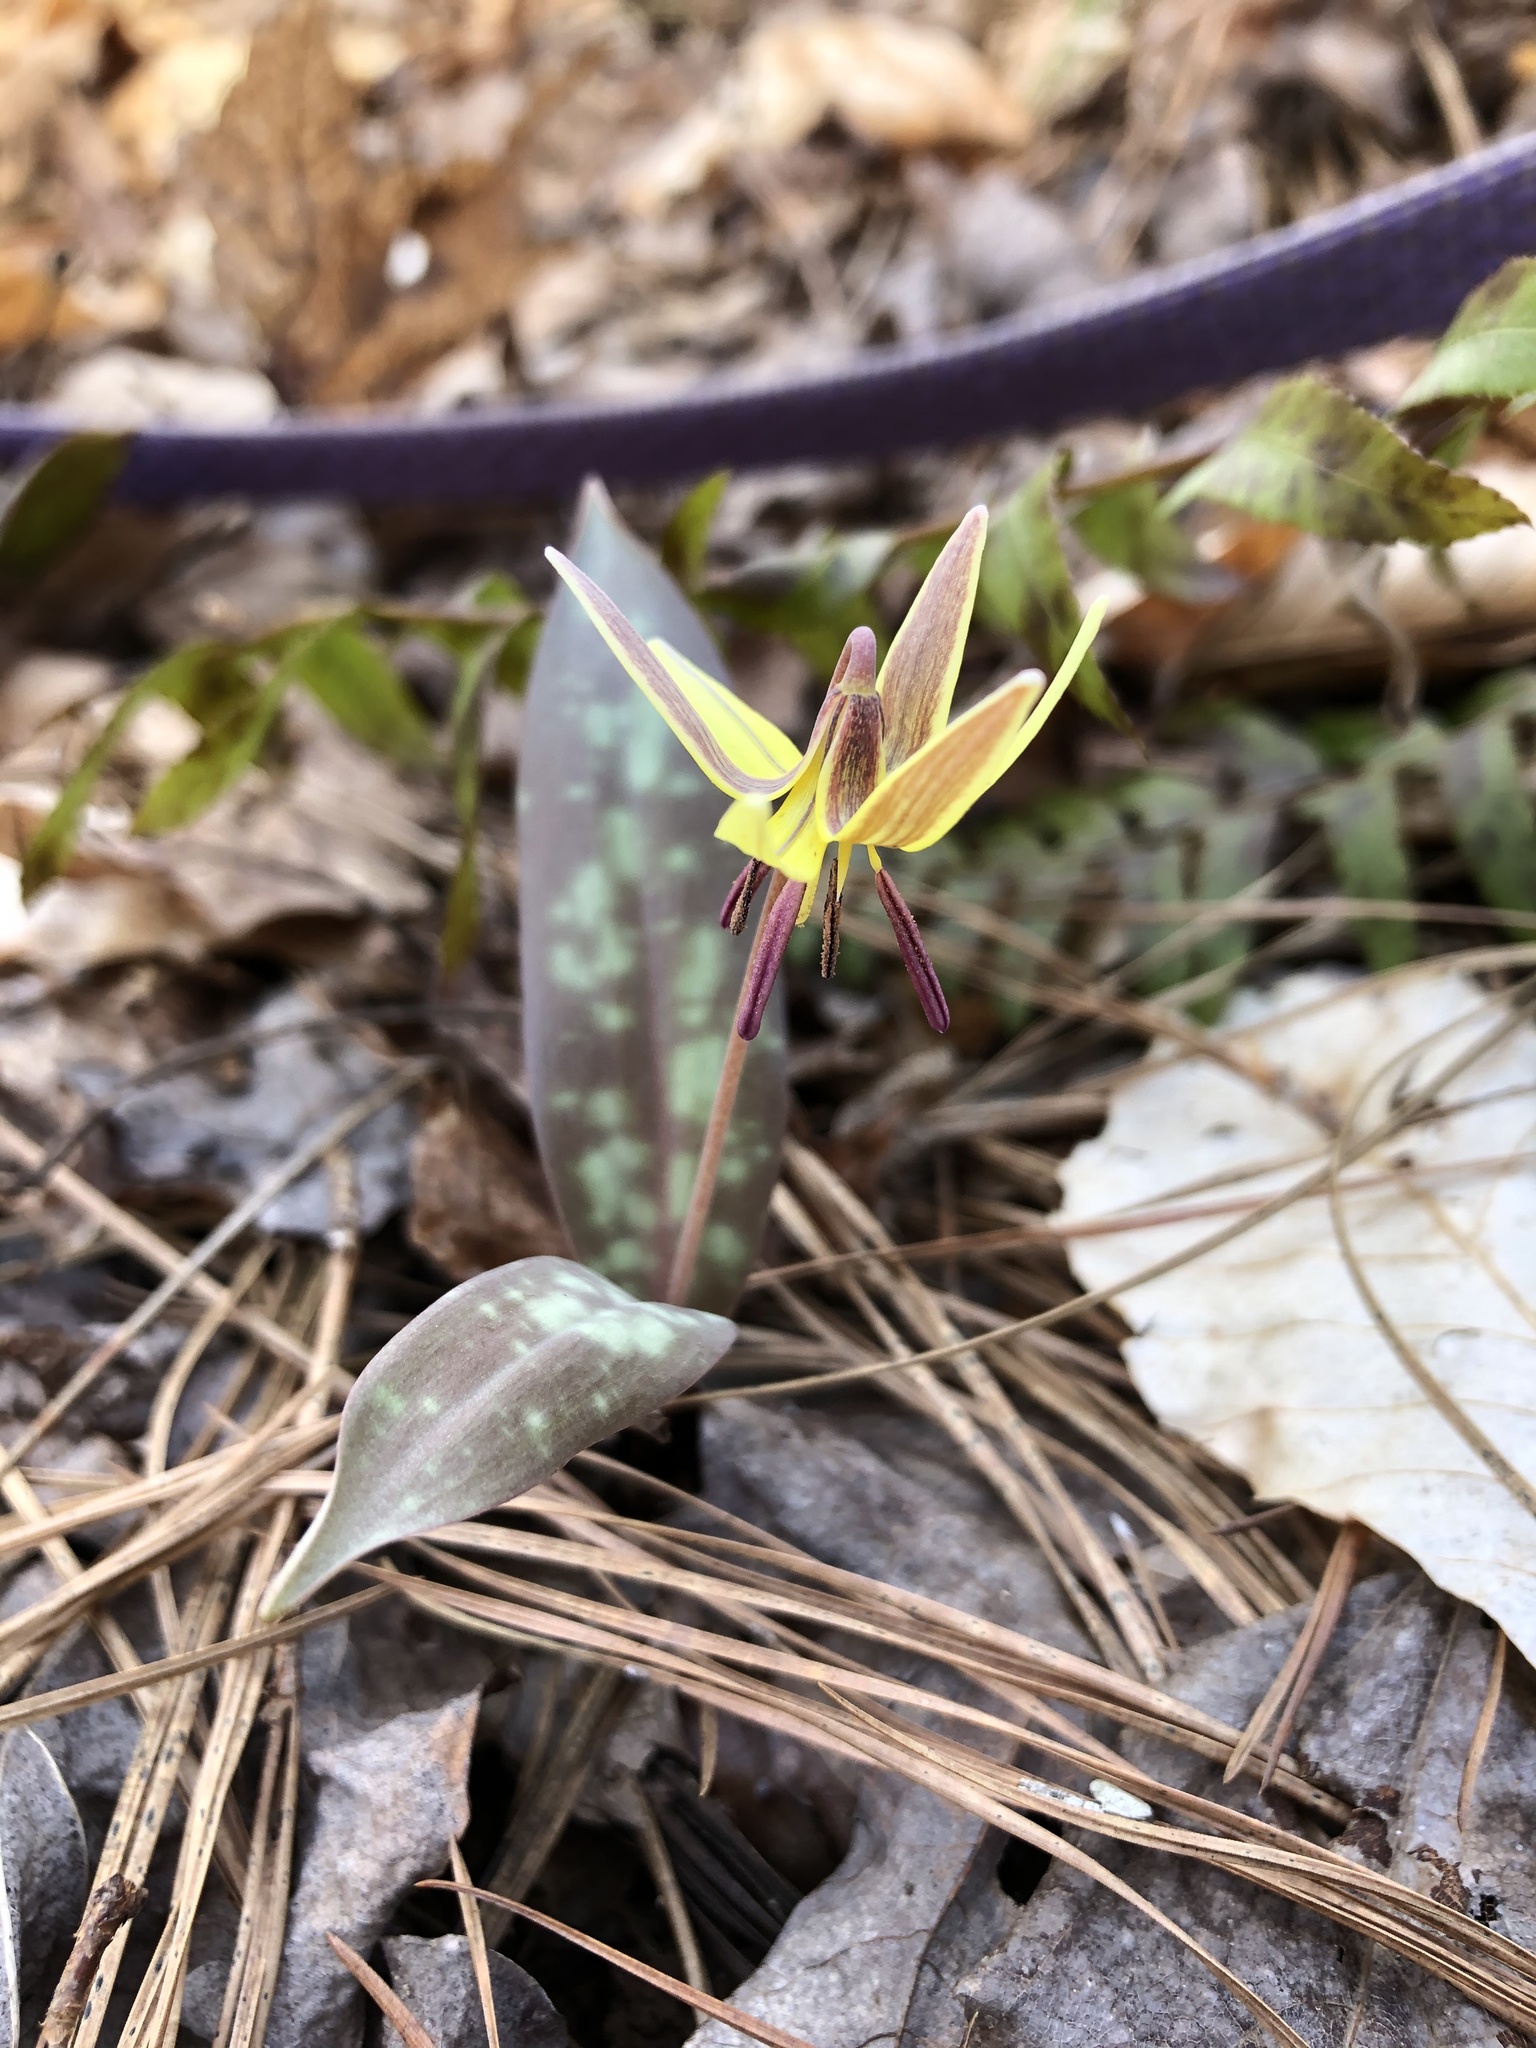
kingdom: Plantae
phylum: Tracheophyta
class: Liliopsida
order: Liliales
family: Liliaceae
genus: Erythronium
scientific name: Erythronium umbilicatum
